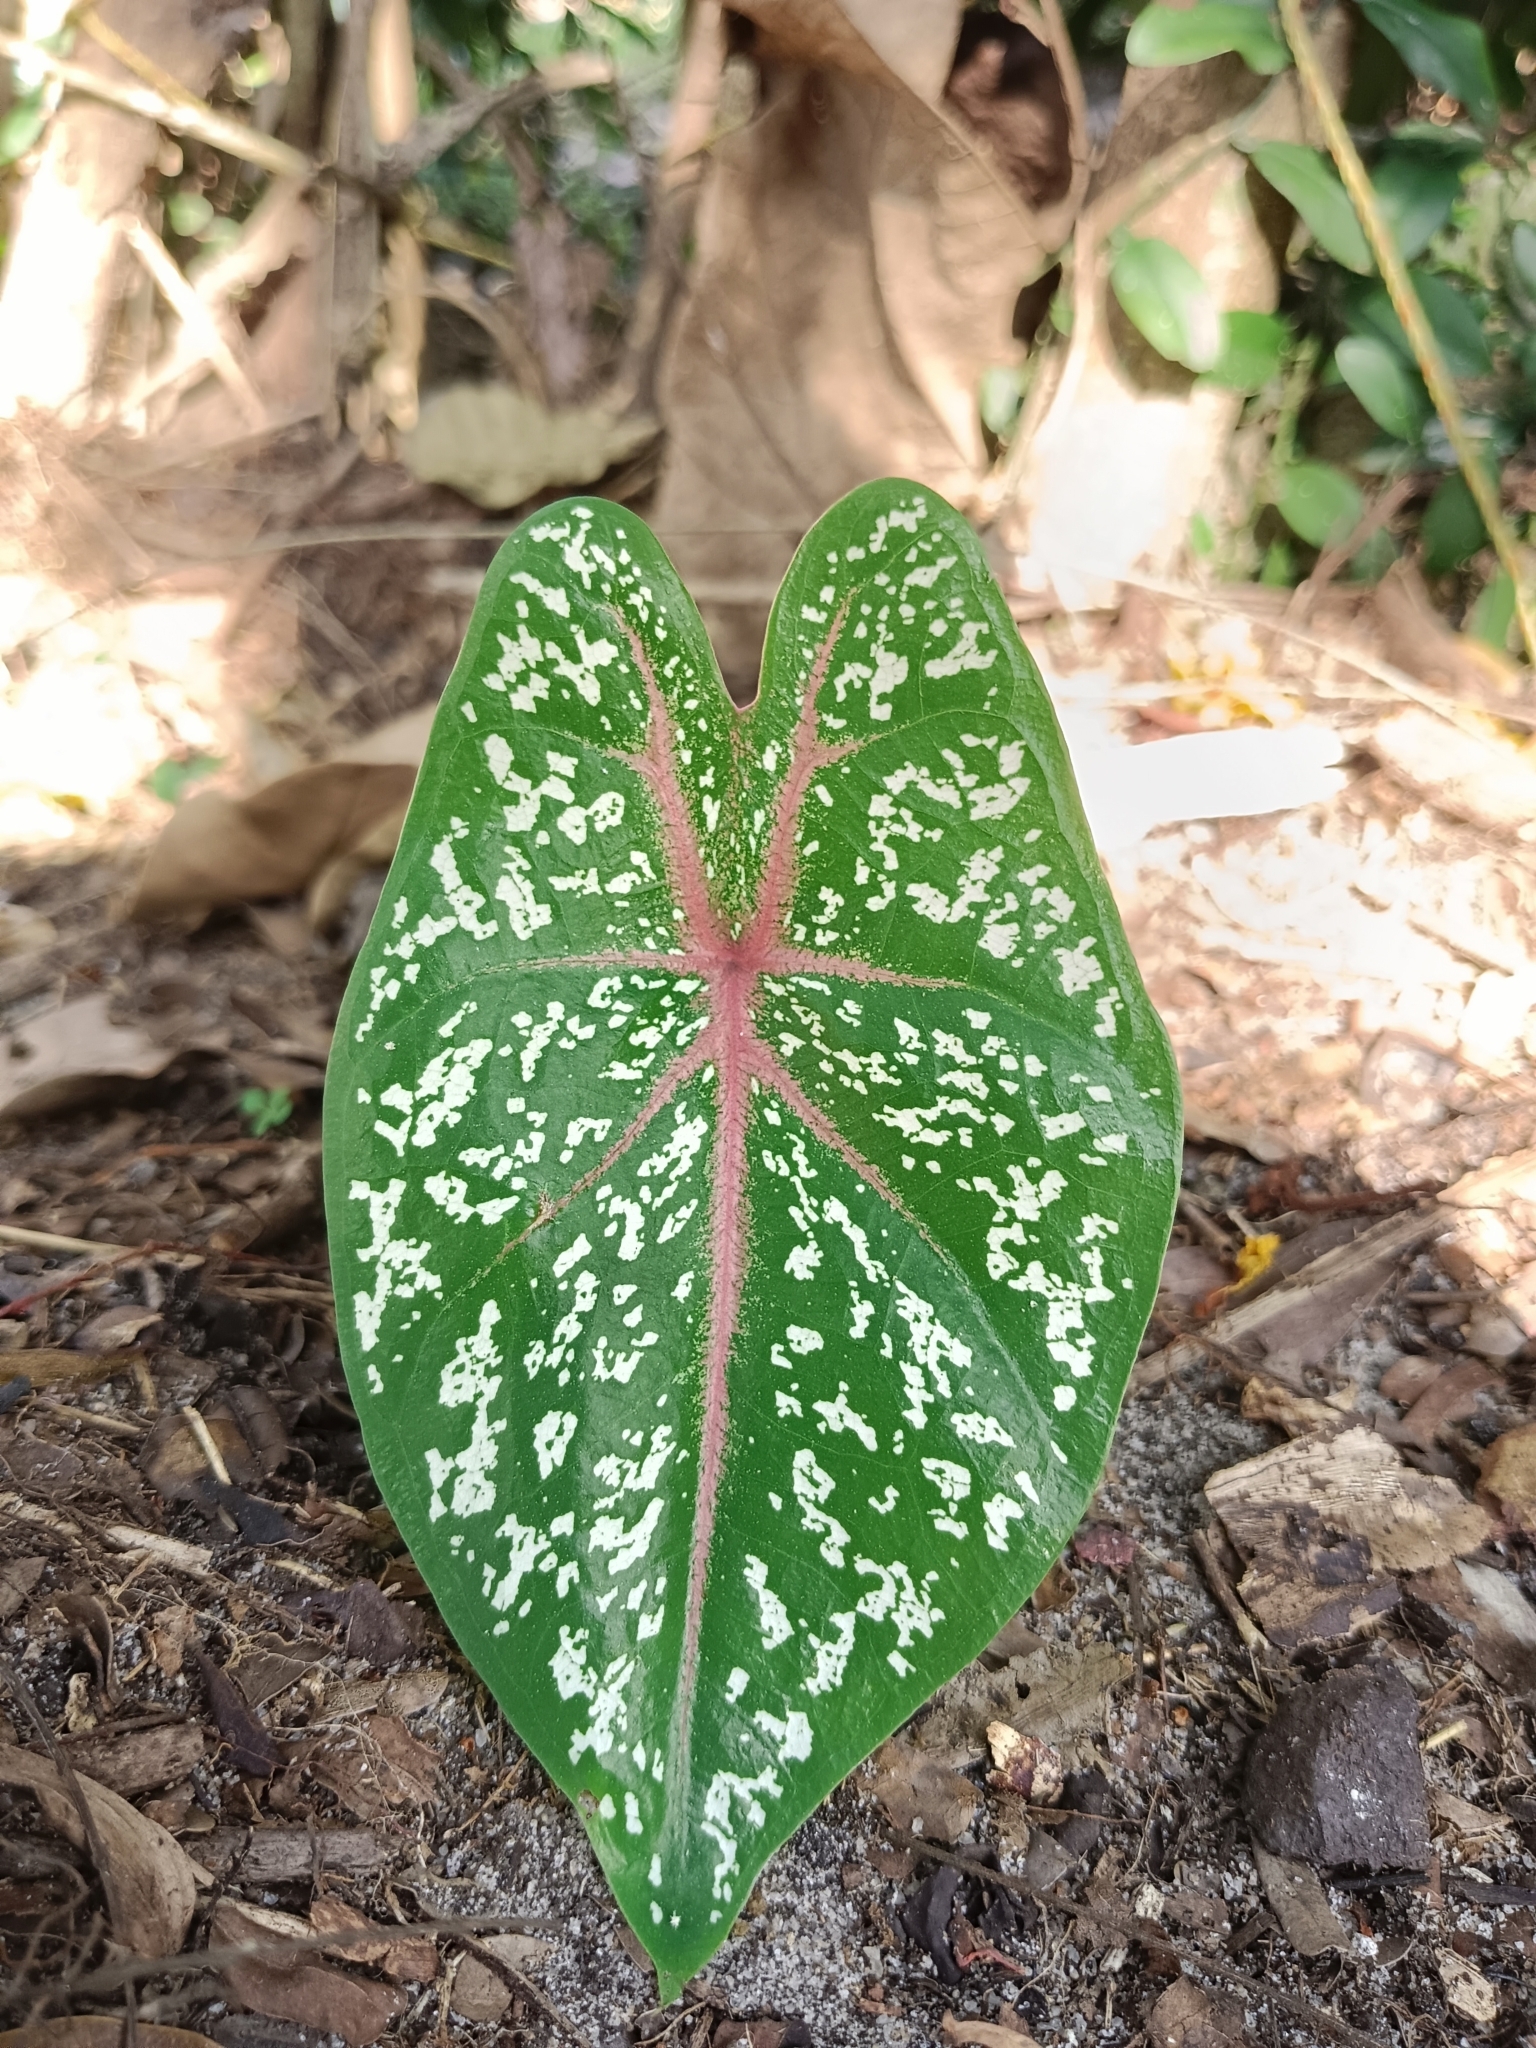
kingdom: Plantae
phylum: Tracheophyta
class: Liliopsida
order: Alismatales
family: Araceae
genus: Caladium
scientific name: Caladium bicolor
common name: Artist's pallet
